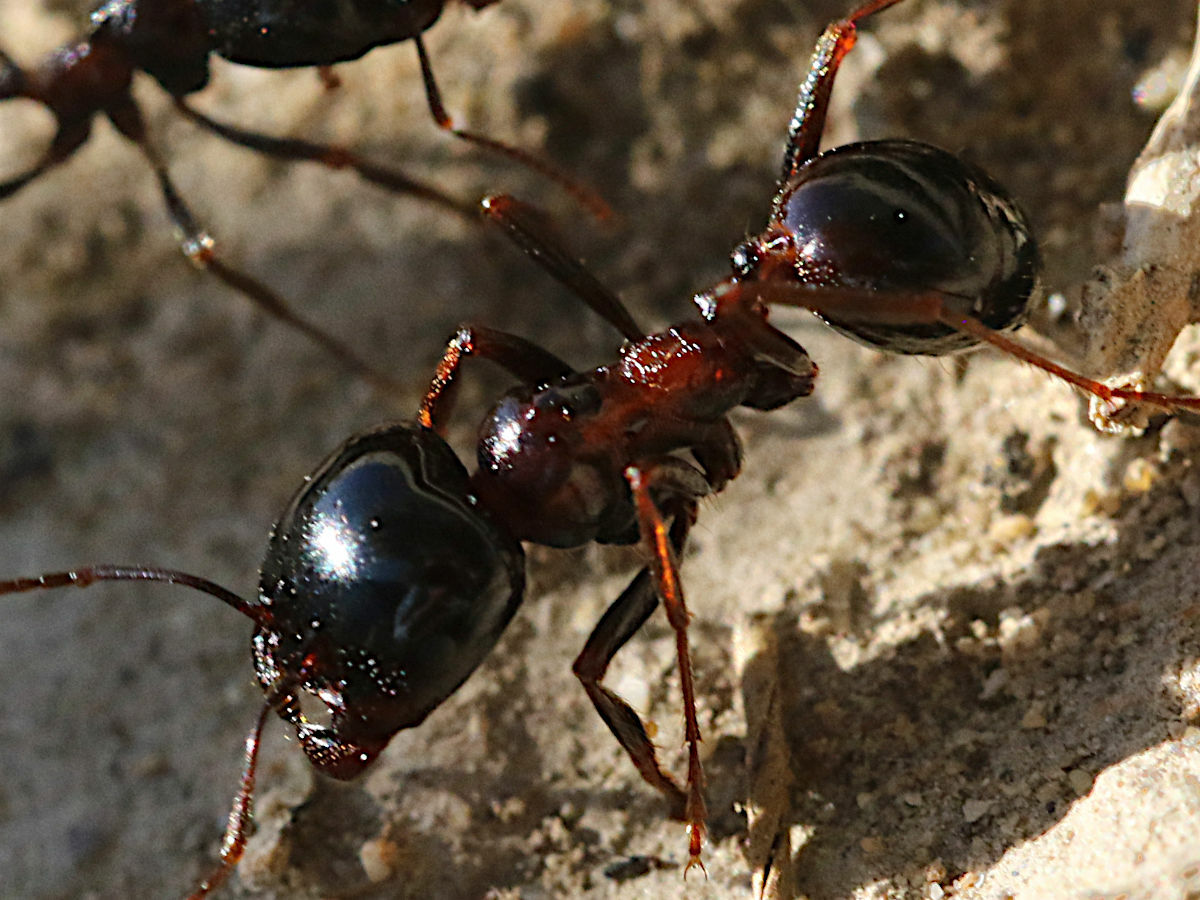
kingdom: Animalia
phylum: Arthropoda
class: Insecta
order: Hymenoptera
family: Formicidae
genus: Messor
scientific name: Messor wasmanni
